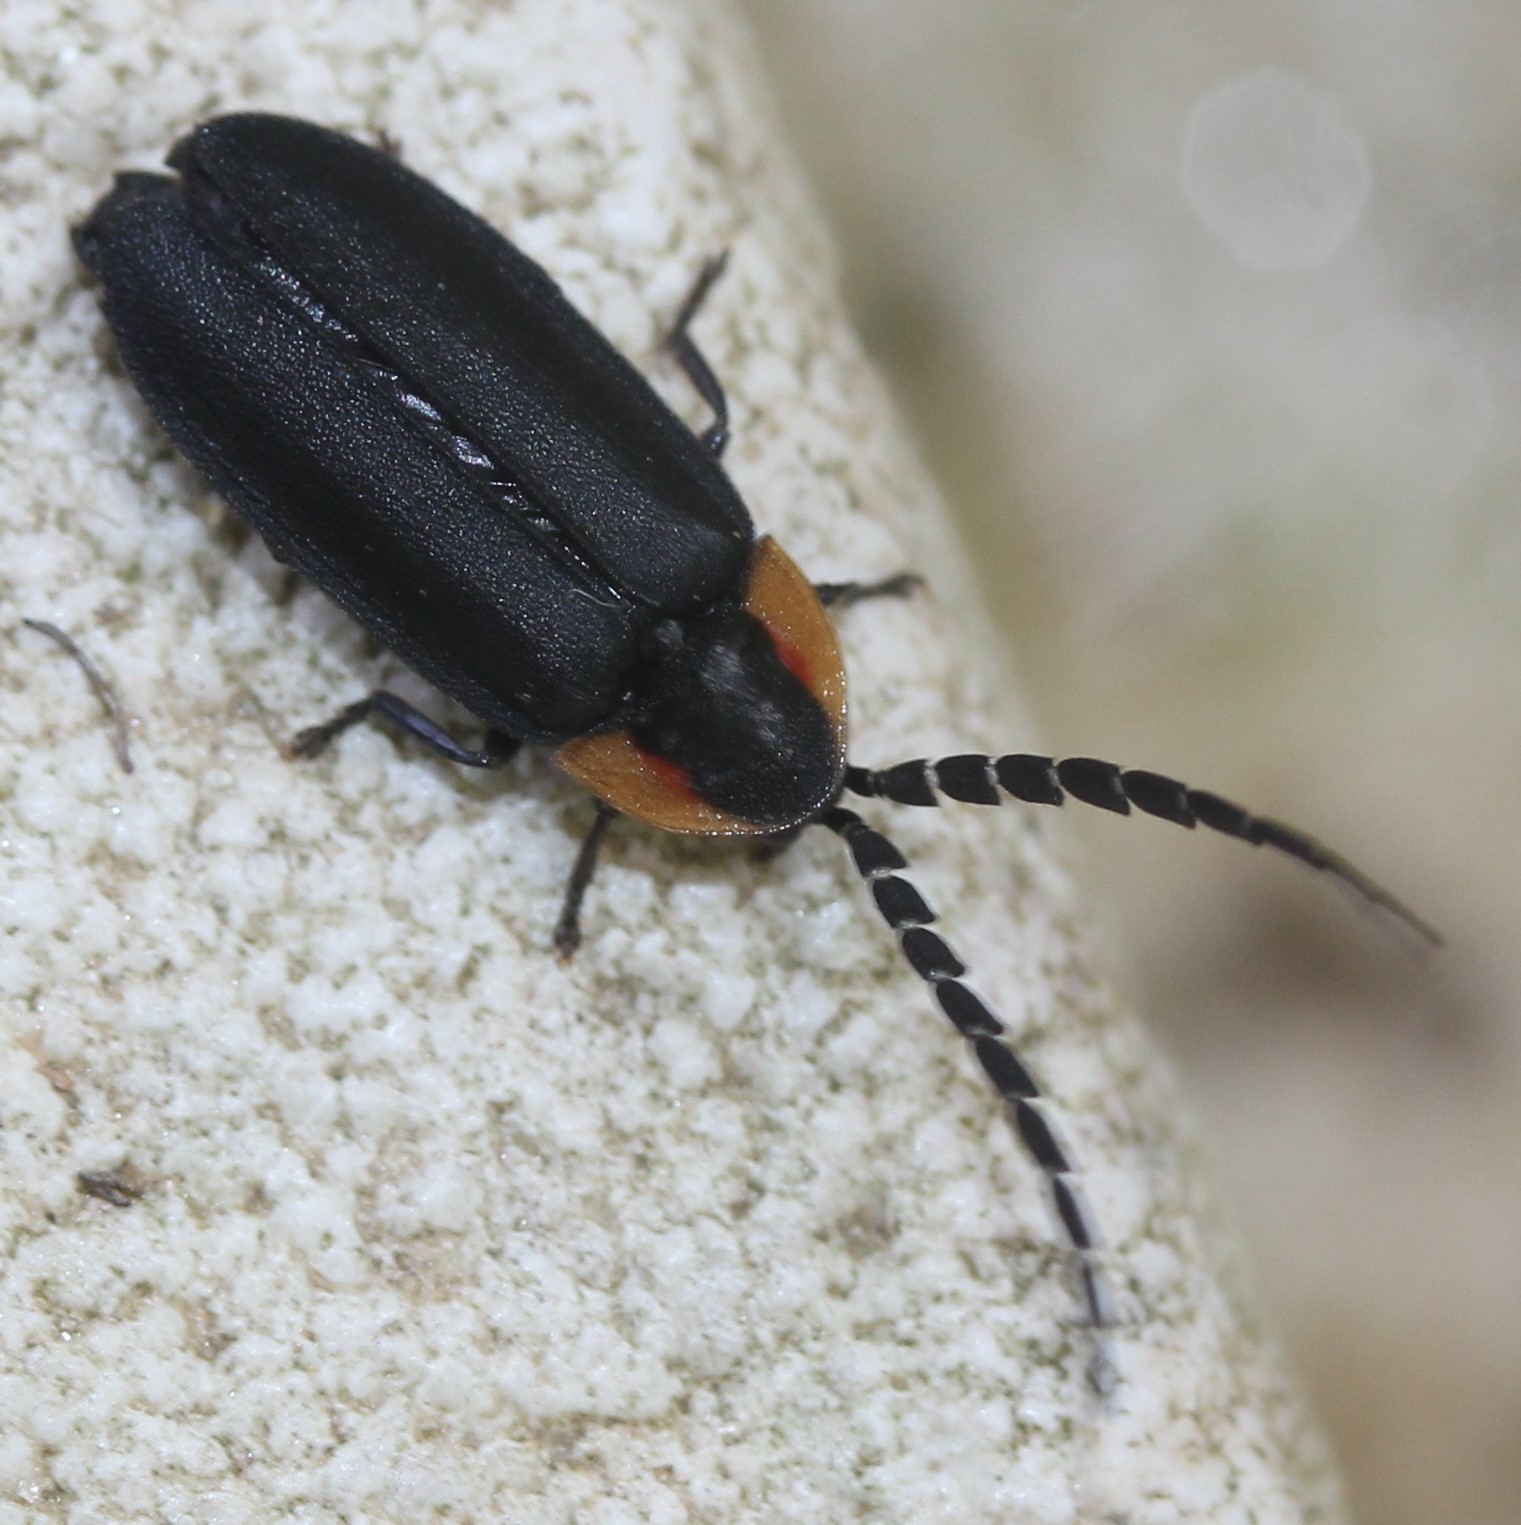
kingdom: Animalia
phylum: Arthropoda
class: Insecta
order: Coleoptera
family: Lampyridae
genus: Lucidota
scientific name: Lucidota atra
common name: Black firefly
